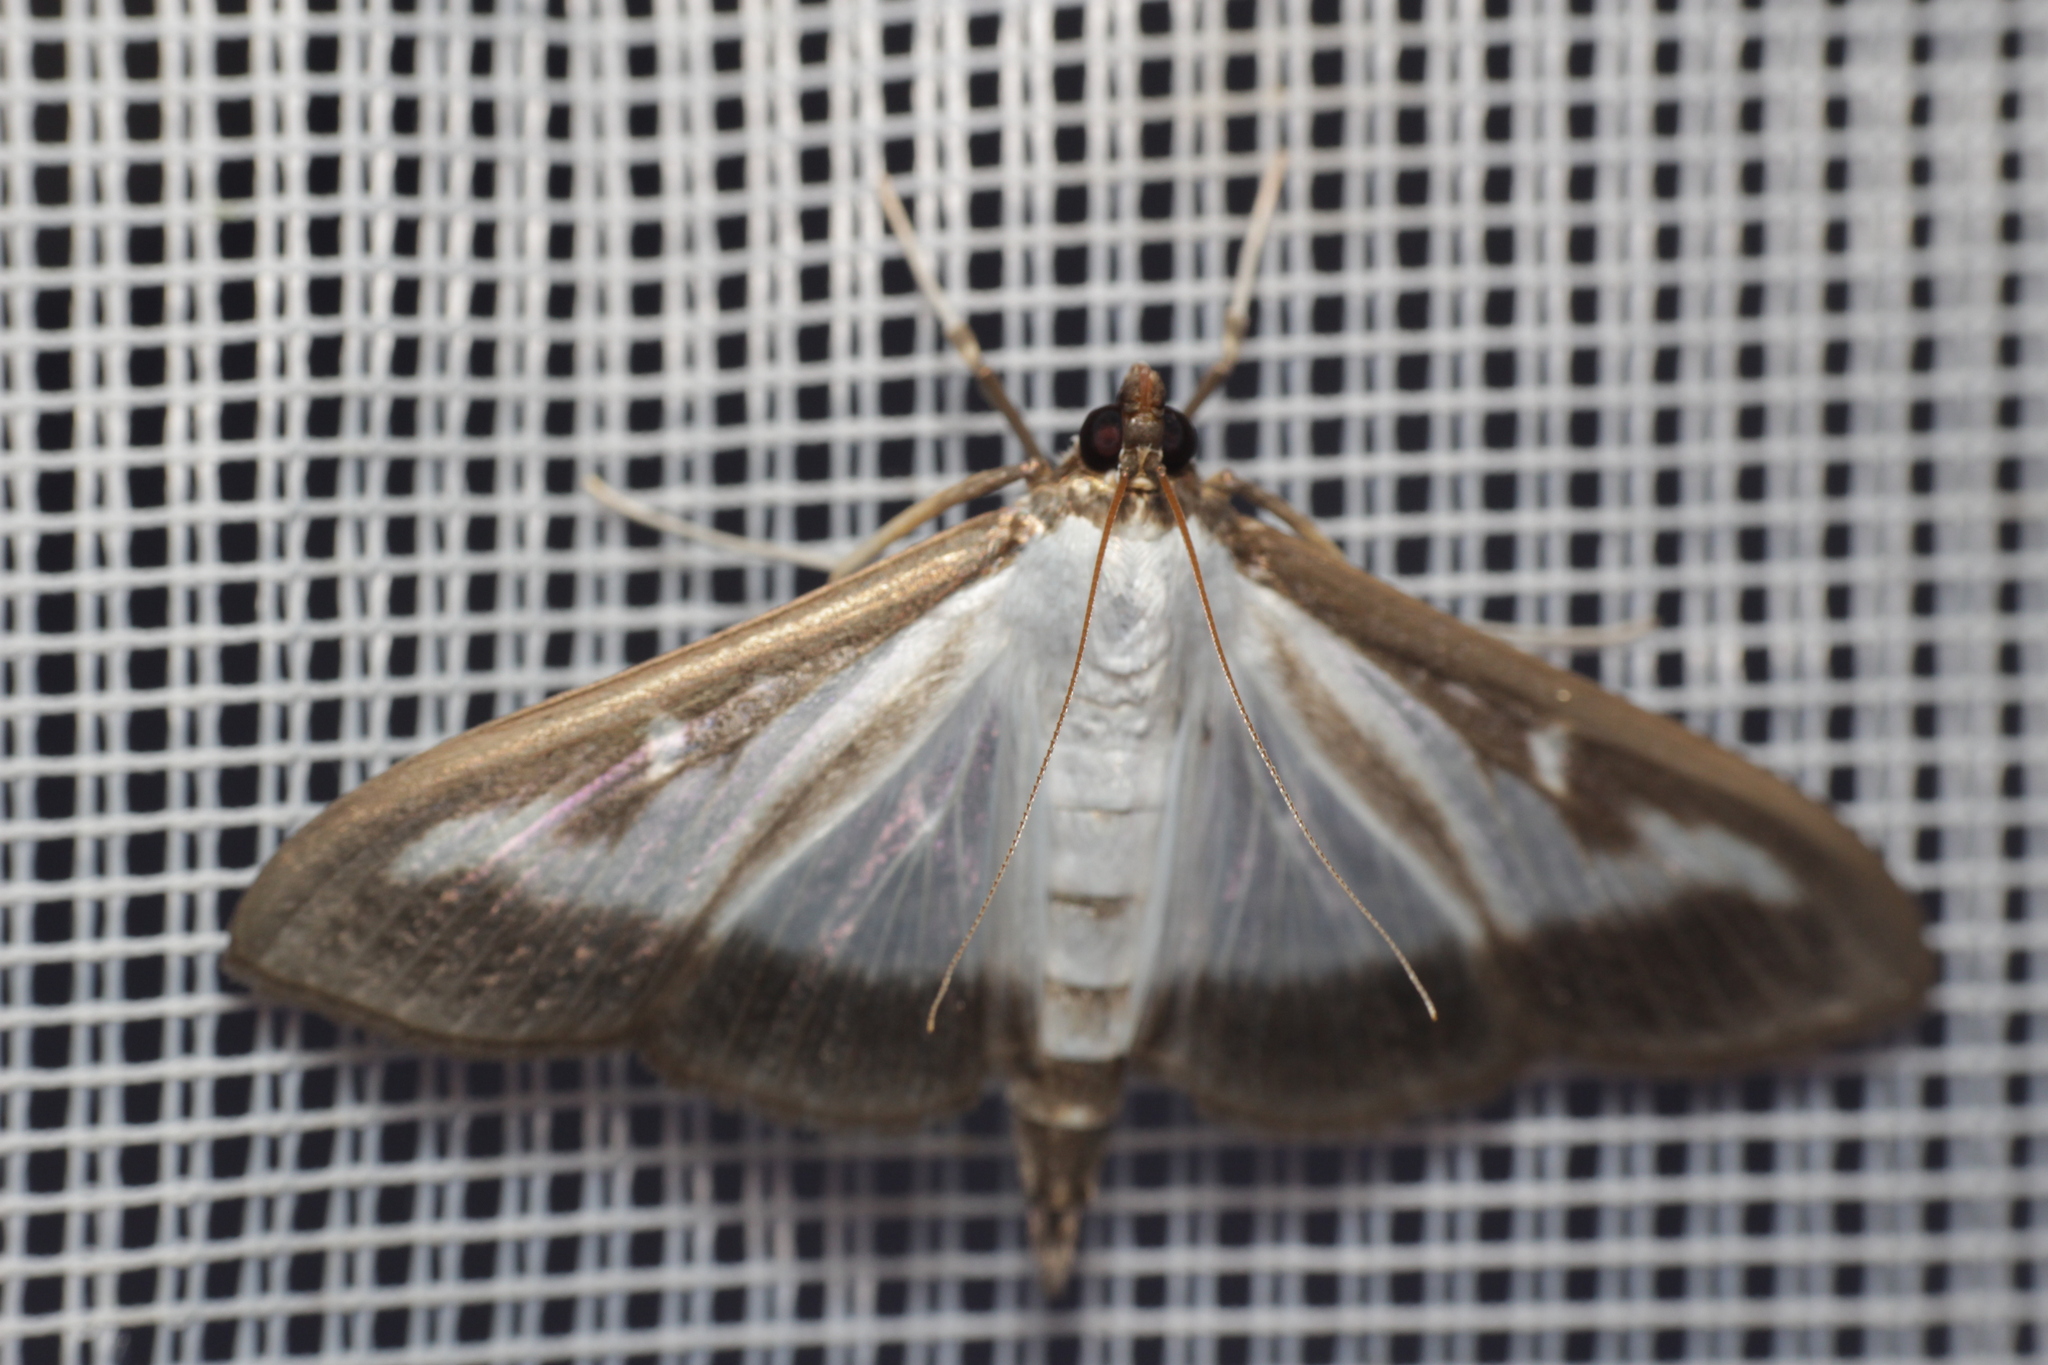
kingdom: Animalia
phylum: Arthropoda
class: Insecta
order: Lepidoptera
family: Crambidae
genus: Cydalima
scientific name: Cydalima perspectalis
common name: Box tree moth
